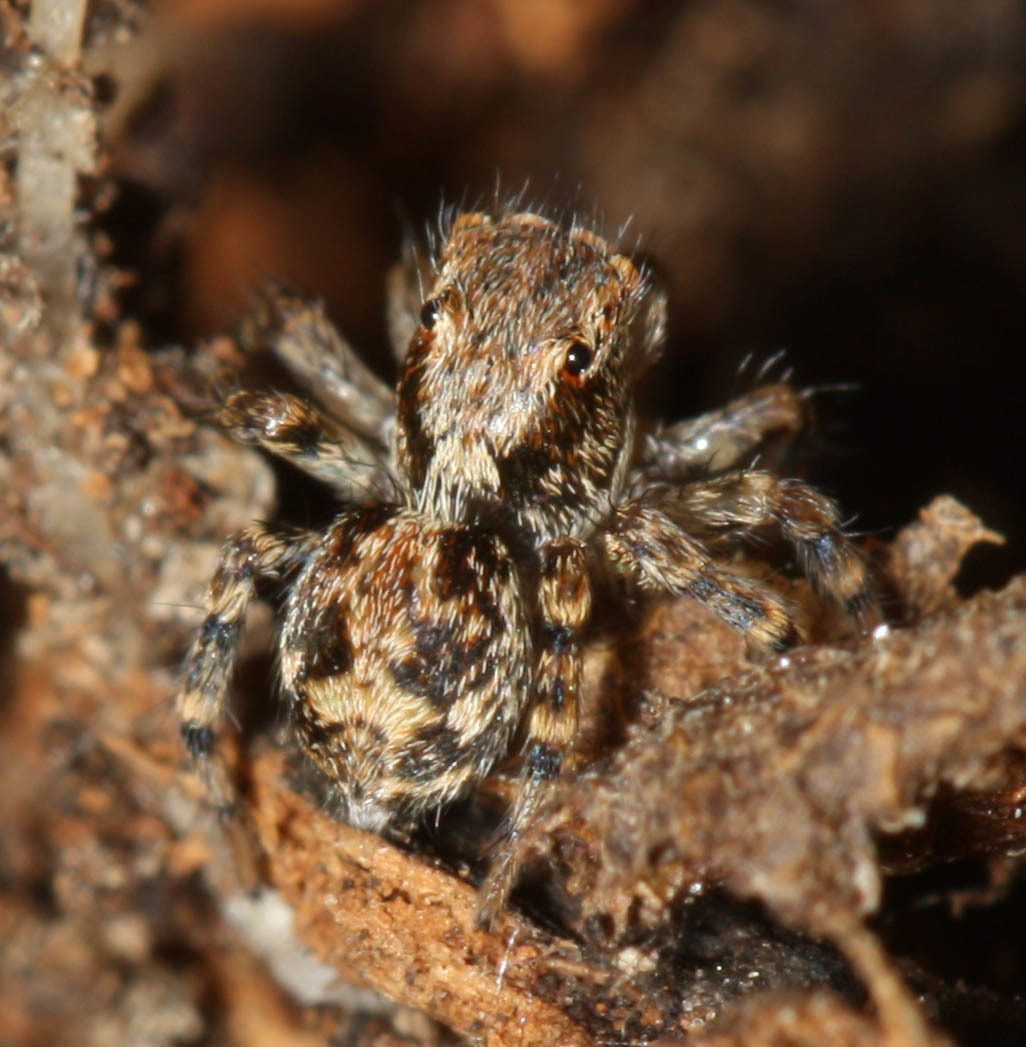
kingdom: Animalia
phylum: Arthropoda
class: Arachnida
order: Araneae
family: Salticidae
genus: Naphrys
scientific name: Naphrys pulex
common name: Flea jumping spider
